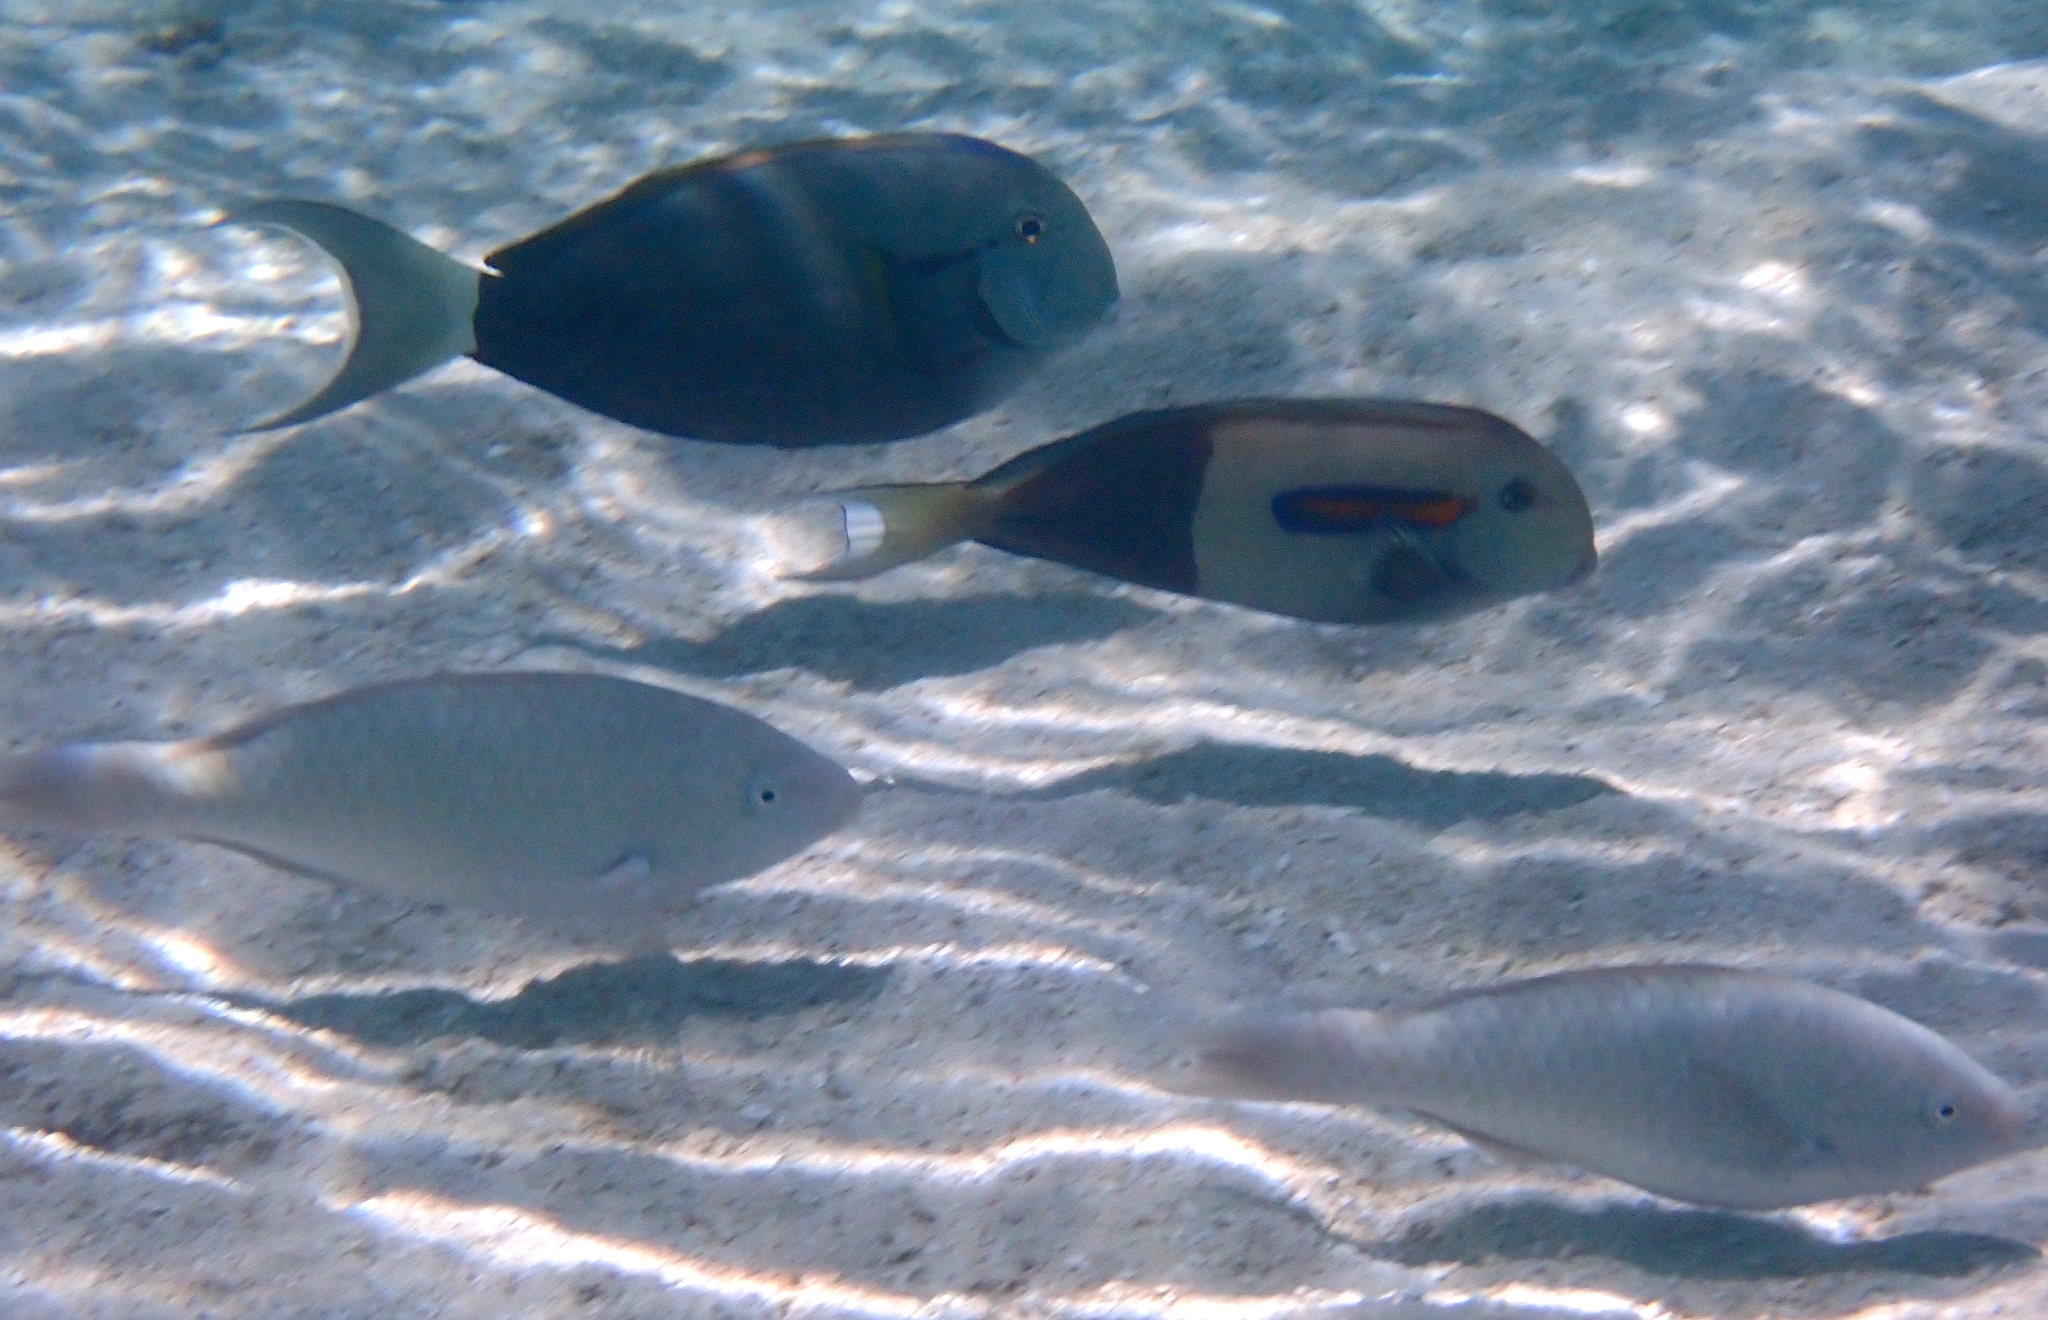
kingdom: Animalia
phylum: Chordata
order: Perciformes
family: Acanthuridae
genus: Acanthurus
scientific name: Acanthurus olivaceus
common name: Gendarme fish
